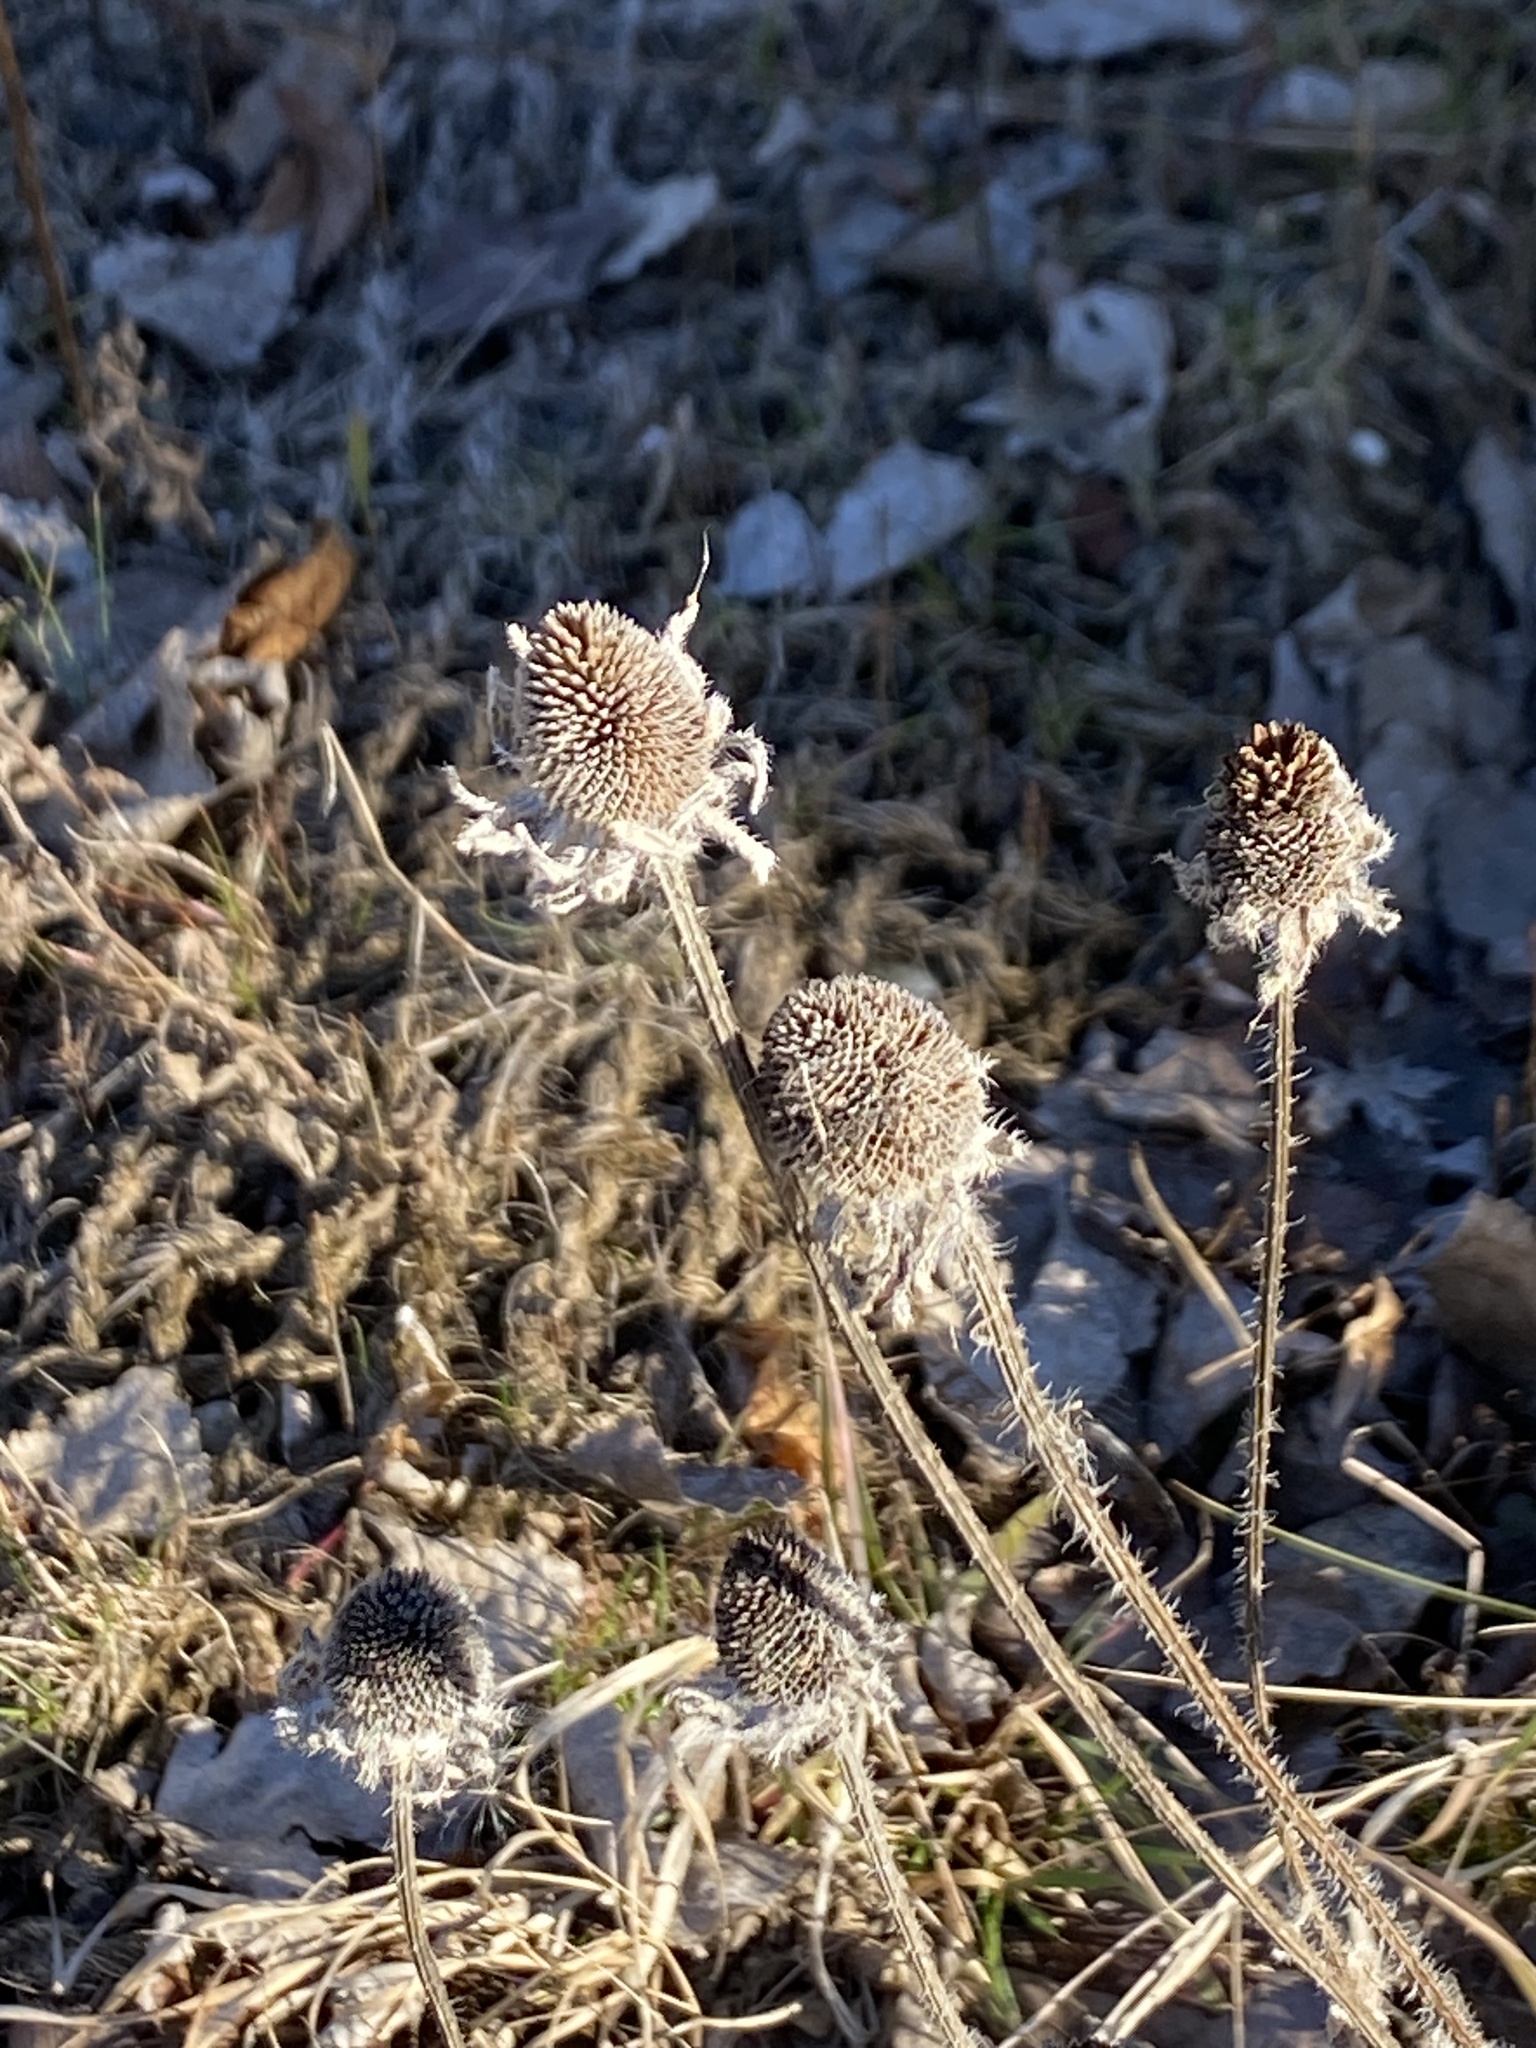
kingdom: Plantae
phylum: Tracheophyta
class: Magnoliopsida
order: Asterales
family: Asteraceae
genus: Rudbeckia
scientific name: Rudbeckia hirta
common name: Black-eyed-susan
